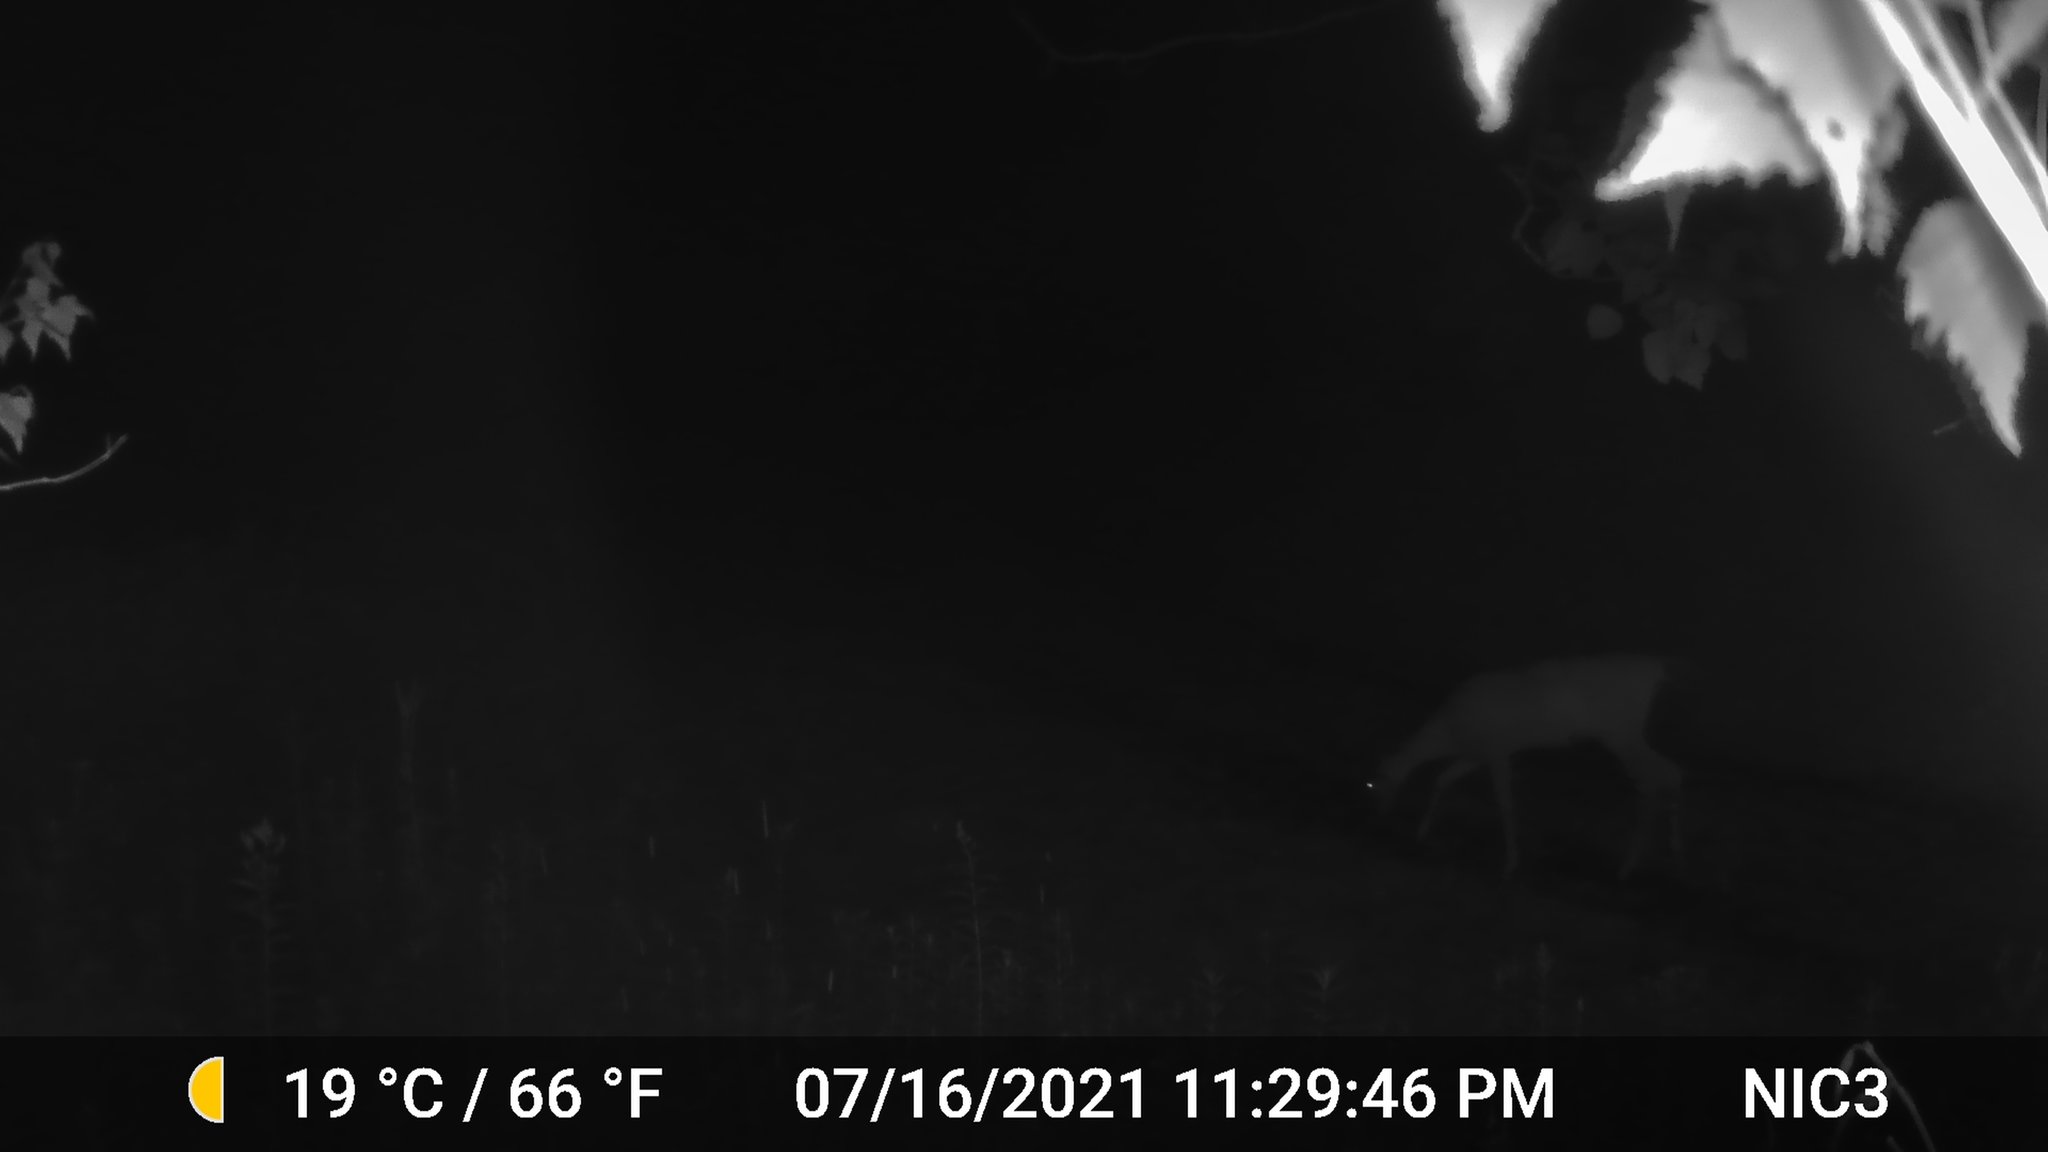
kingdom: Animalia
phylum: Chordata
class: Mammalia
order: Artiodactyla
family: Cervidae
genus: Odocoileus
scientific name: Odocoileus virginianus
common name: White-tailed deer
